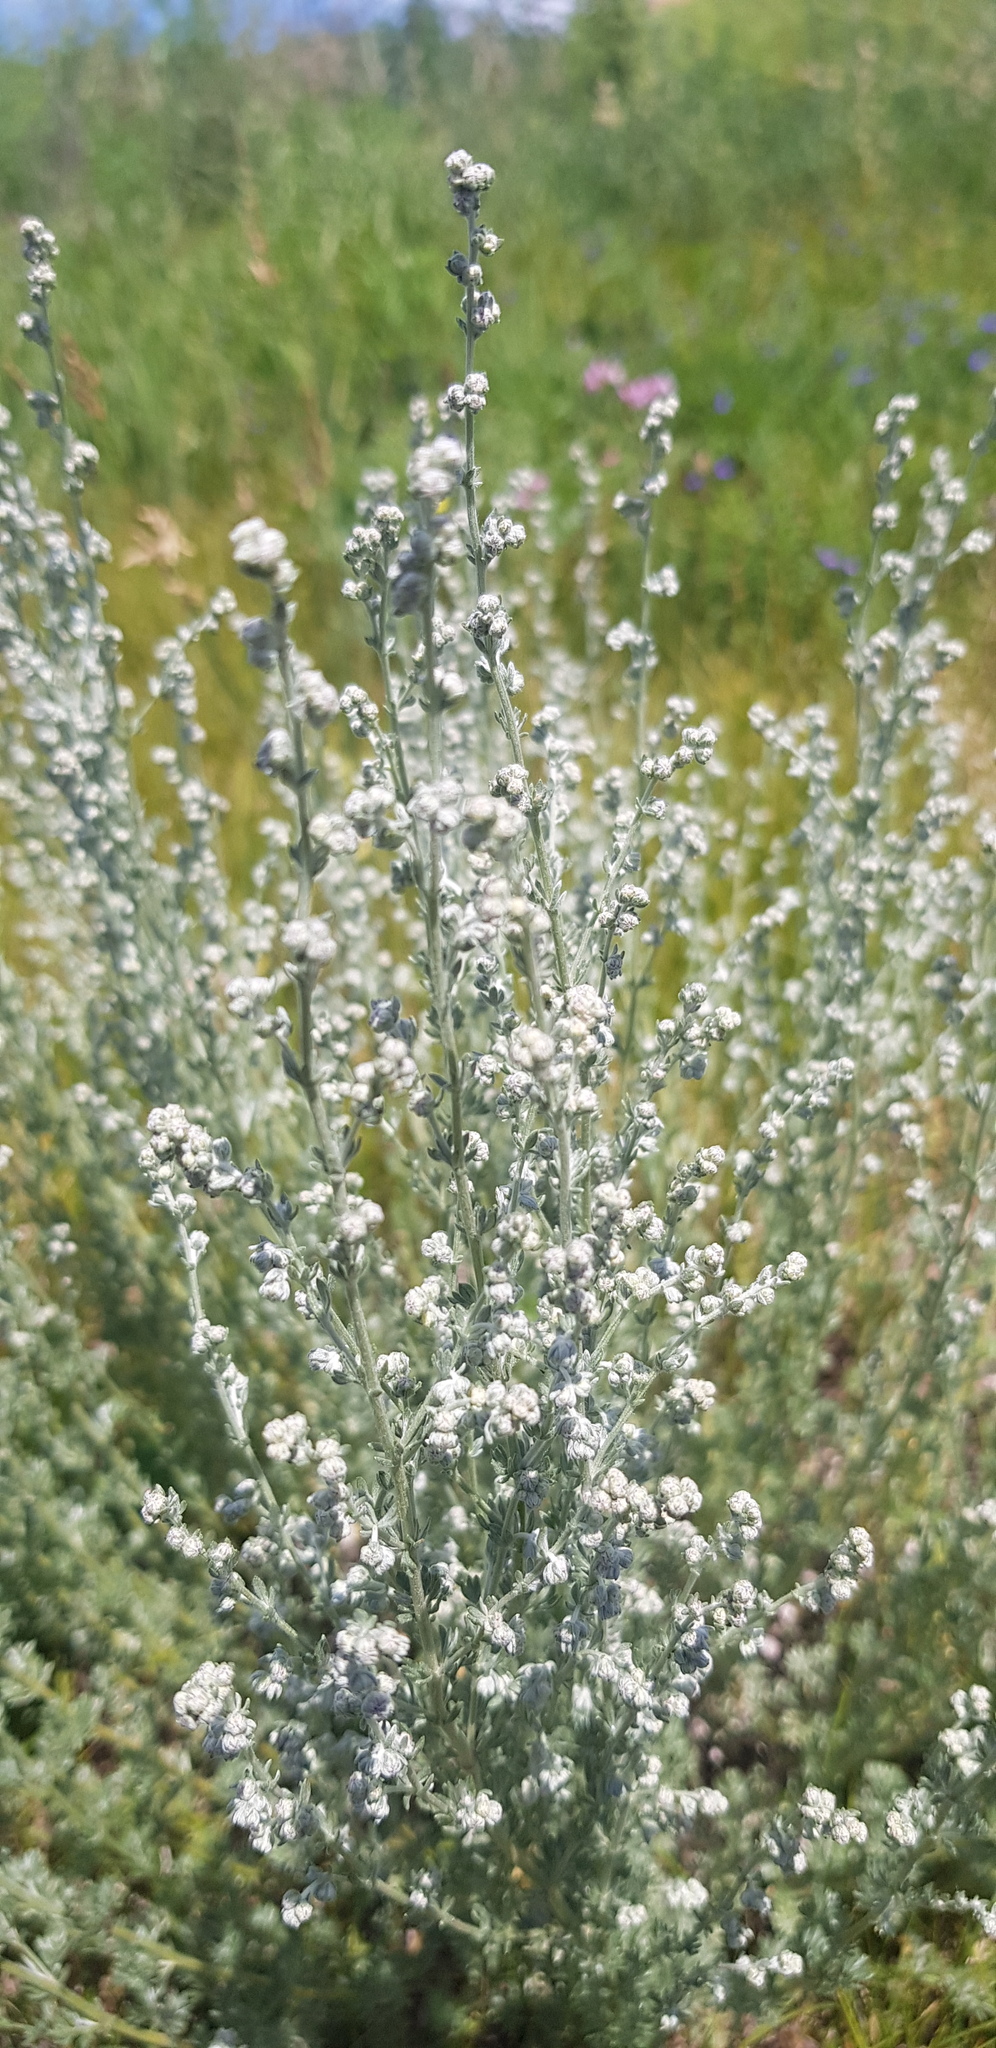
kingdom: Plantae
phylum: Tracheophyta
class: Magnoliopsida
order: Asterales
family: Asteraceae
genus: Artemisia
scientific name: Artemisia frigida
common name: Prairie sagewort
